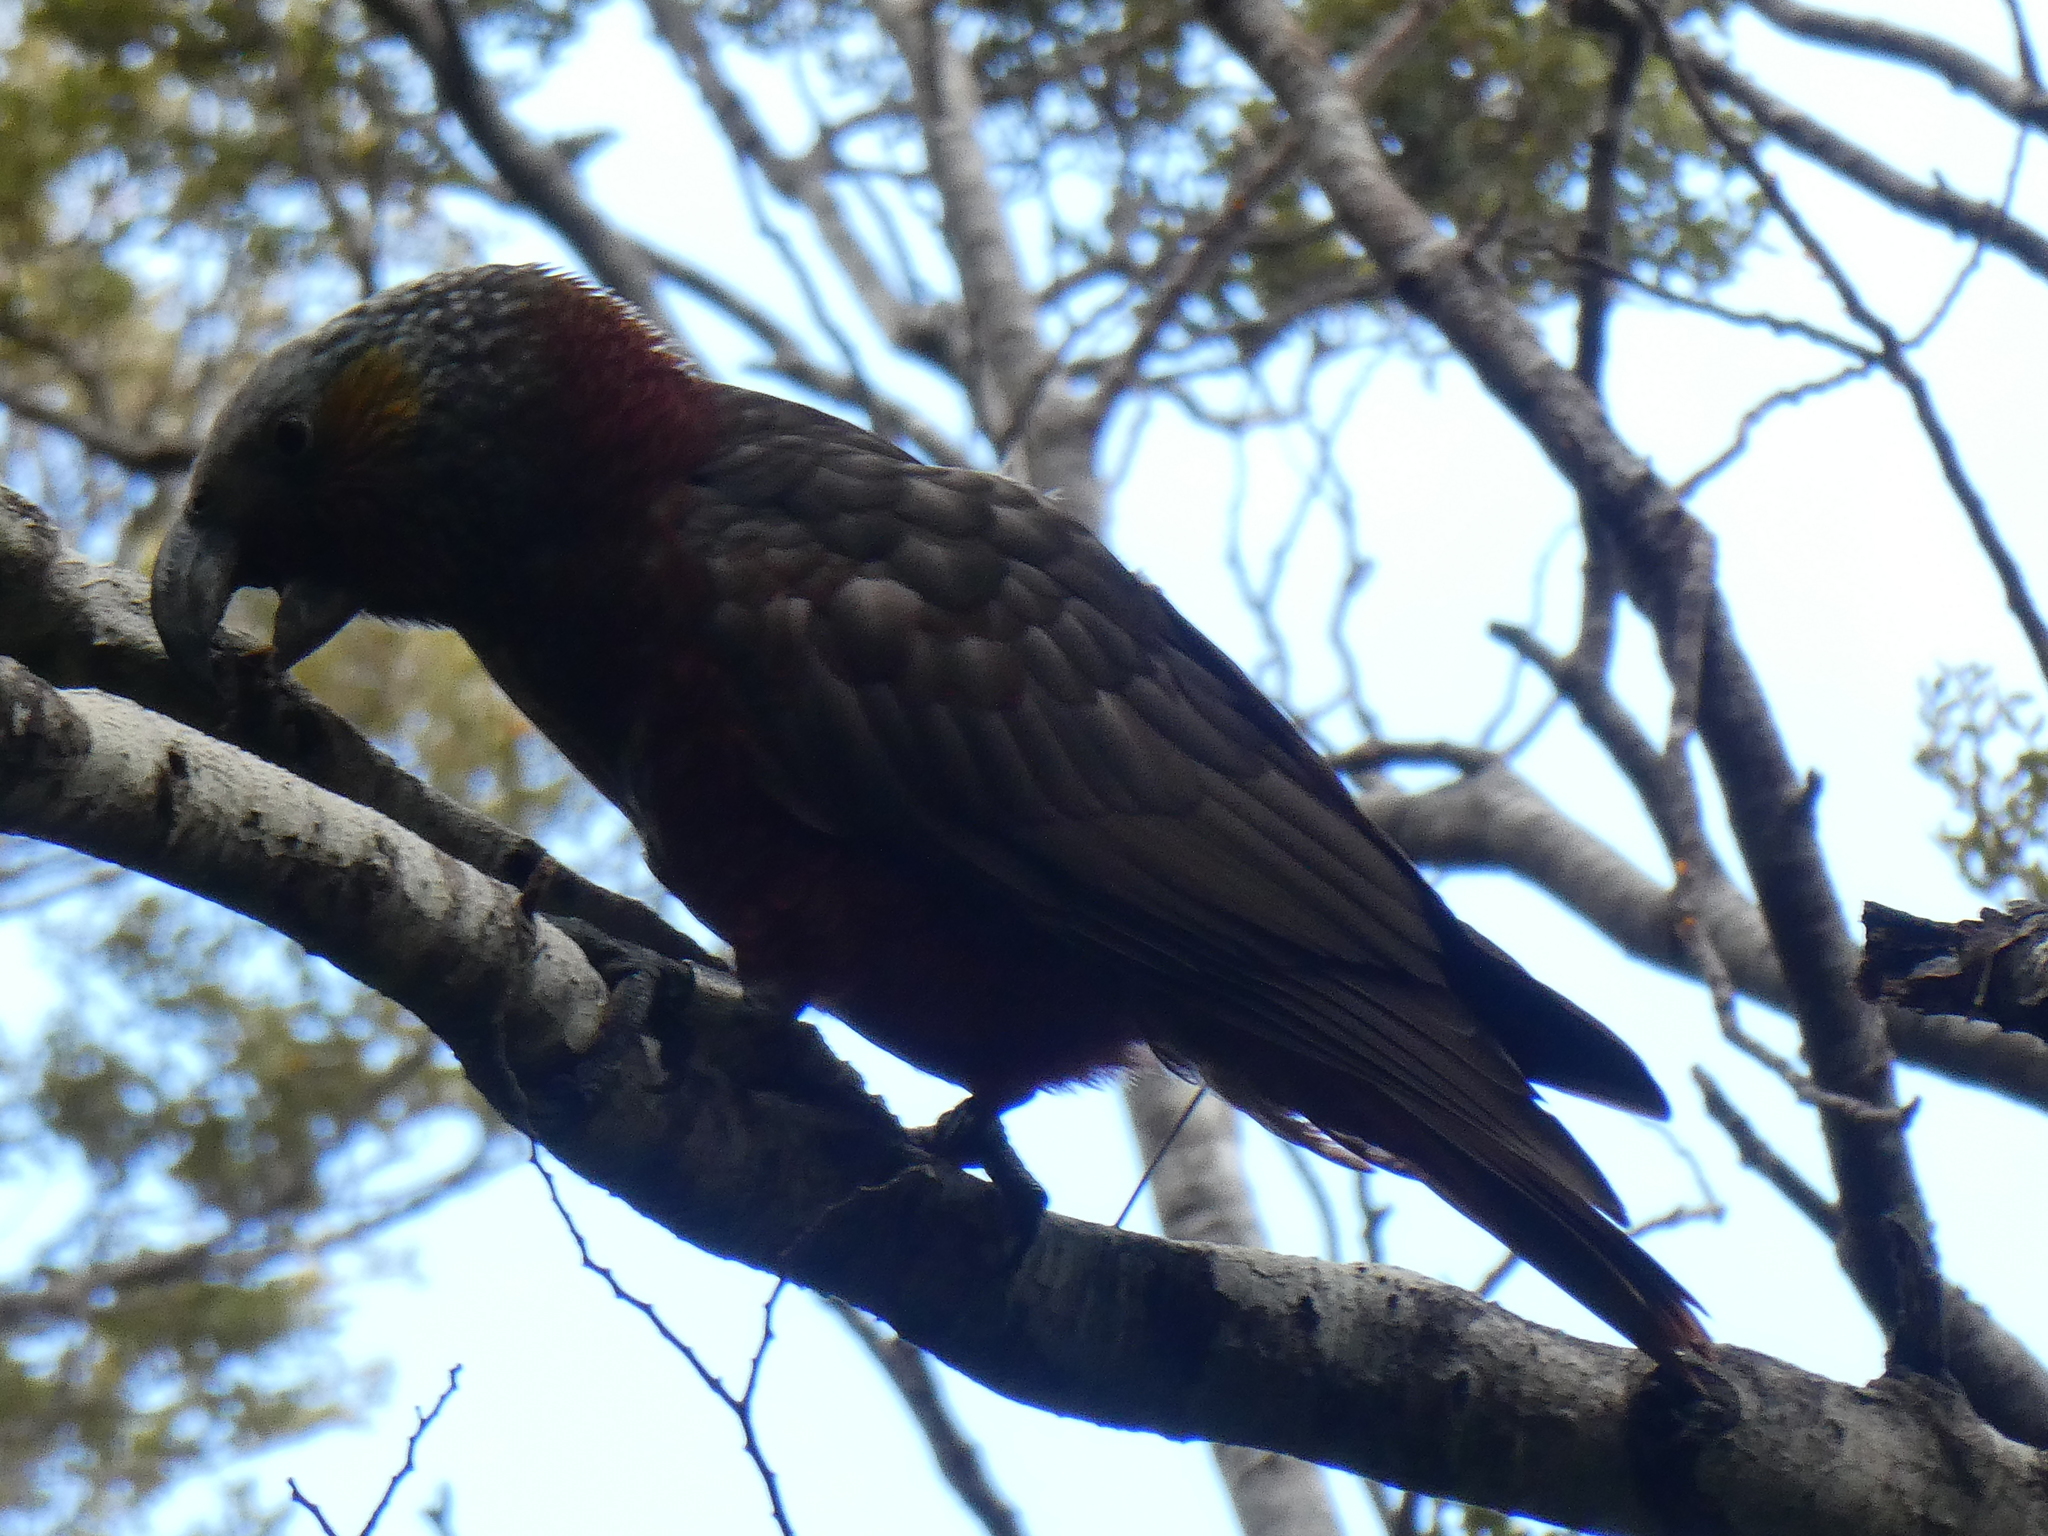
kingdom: Animalia
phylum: Chordata
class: Aves
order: Psittaciformes
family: Psittacidae
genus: Nestor
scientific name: Nestor meridionalis
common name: New zealand kaka
